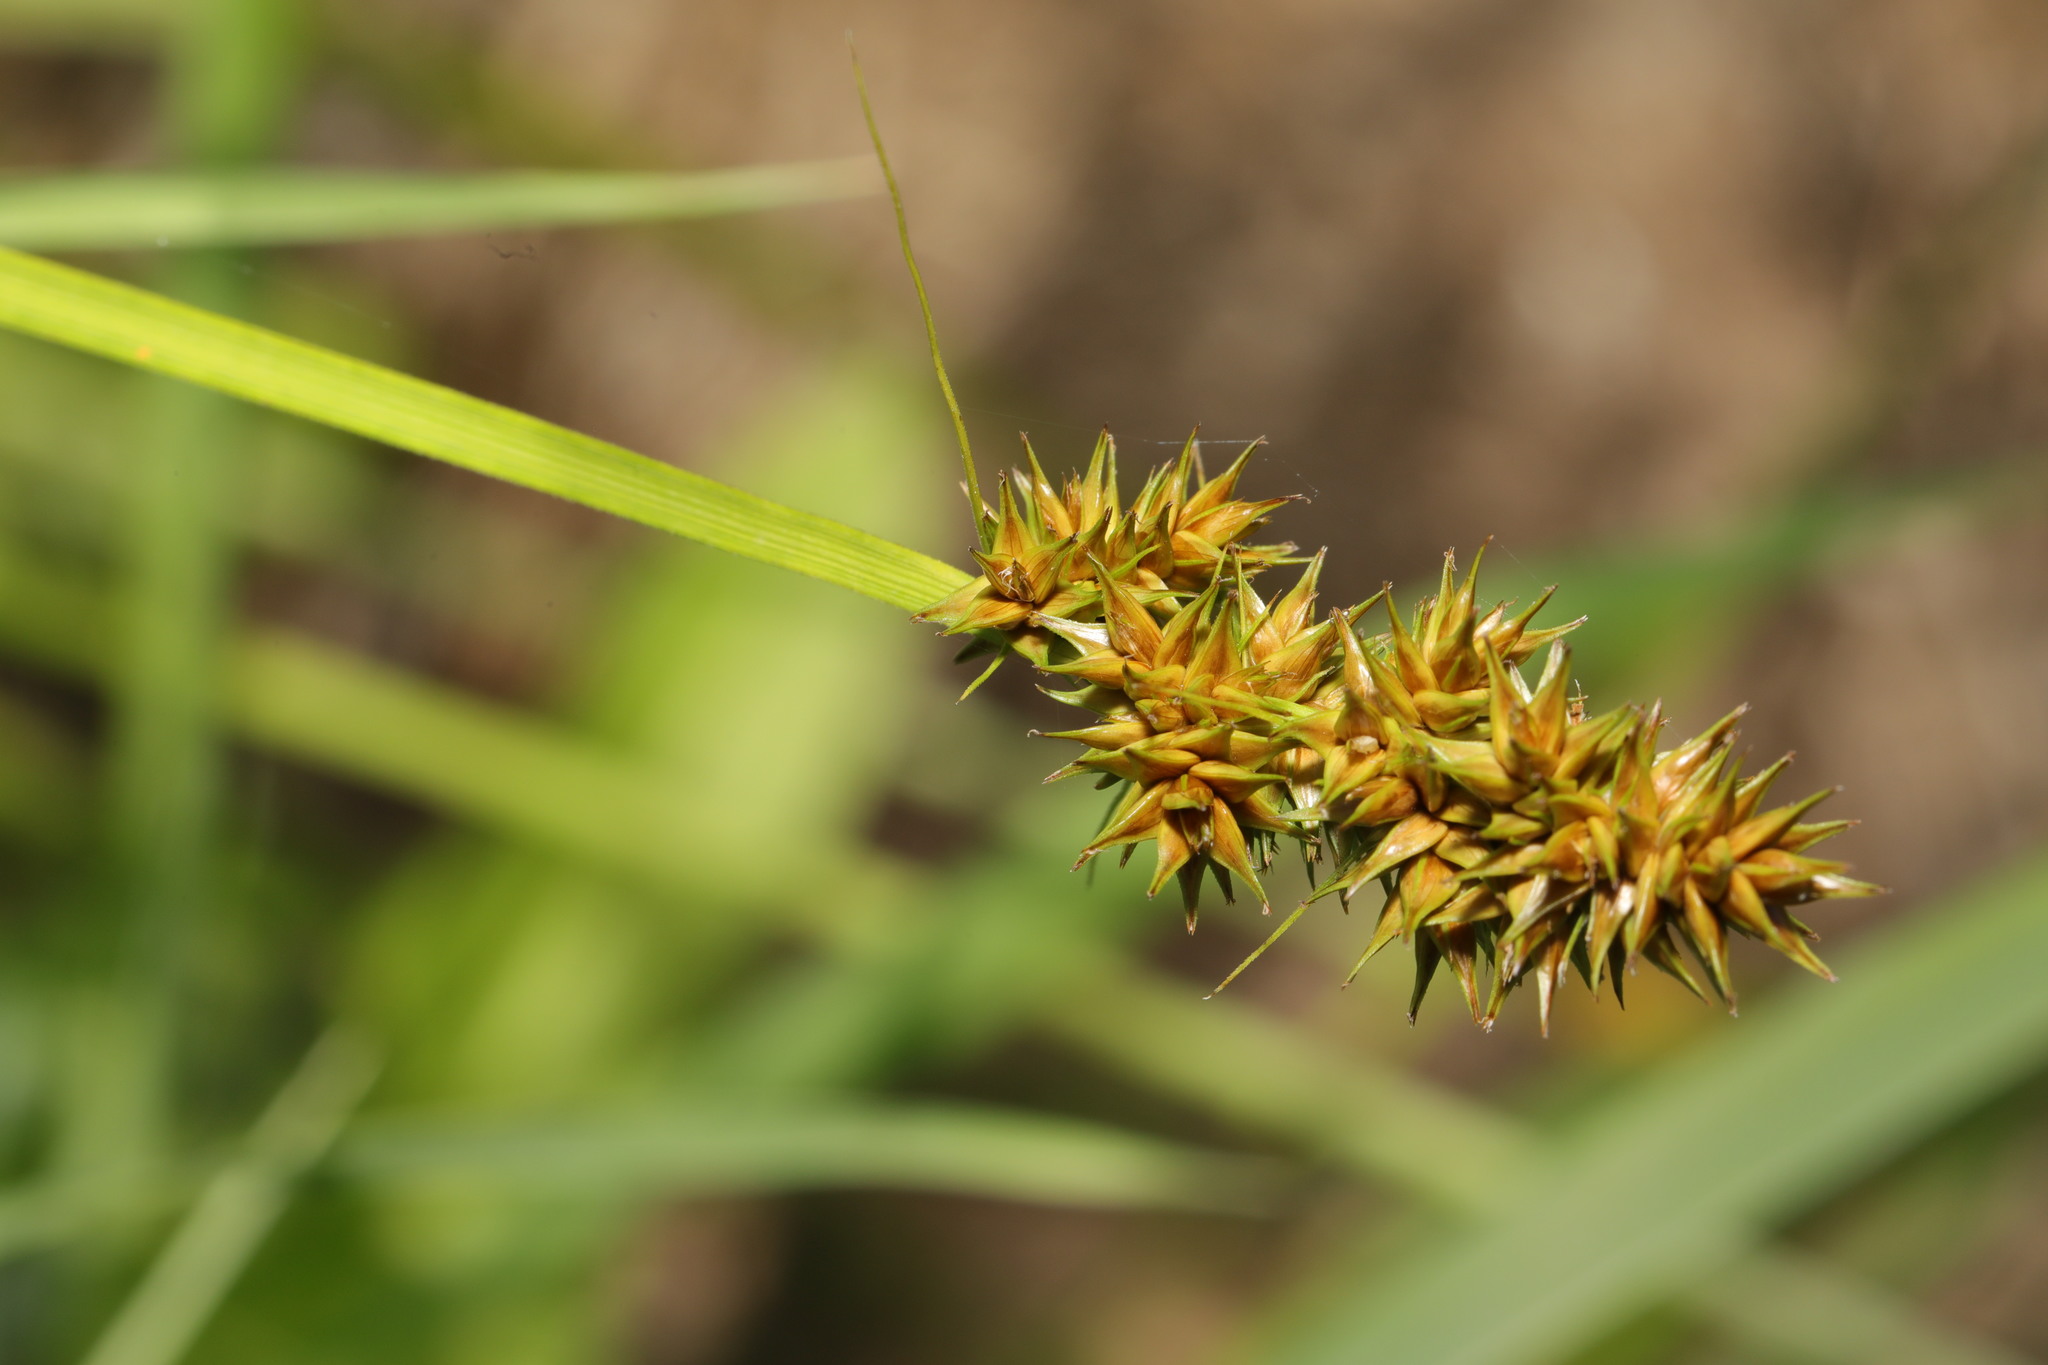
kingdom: Plantae
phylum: Tracheophyta
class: Liliopsida
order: Poales
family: Cyperaceae
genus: Carex
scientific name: Carex otrubae
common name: False fox-sedge
